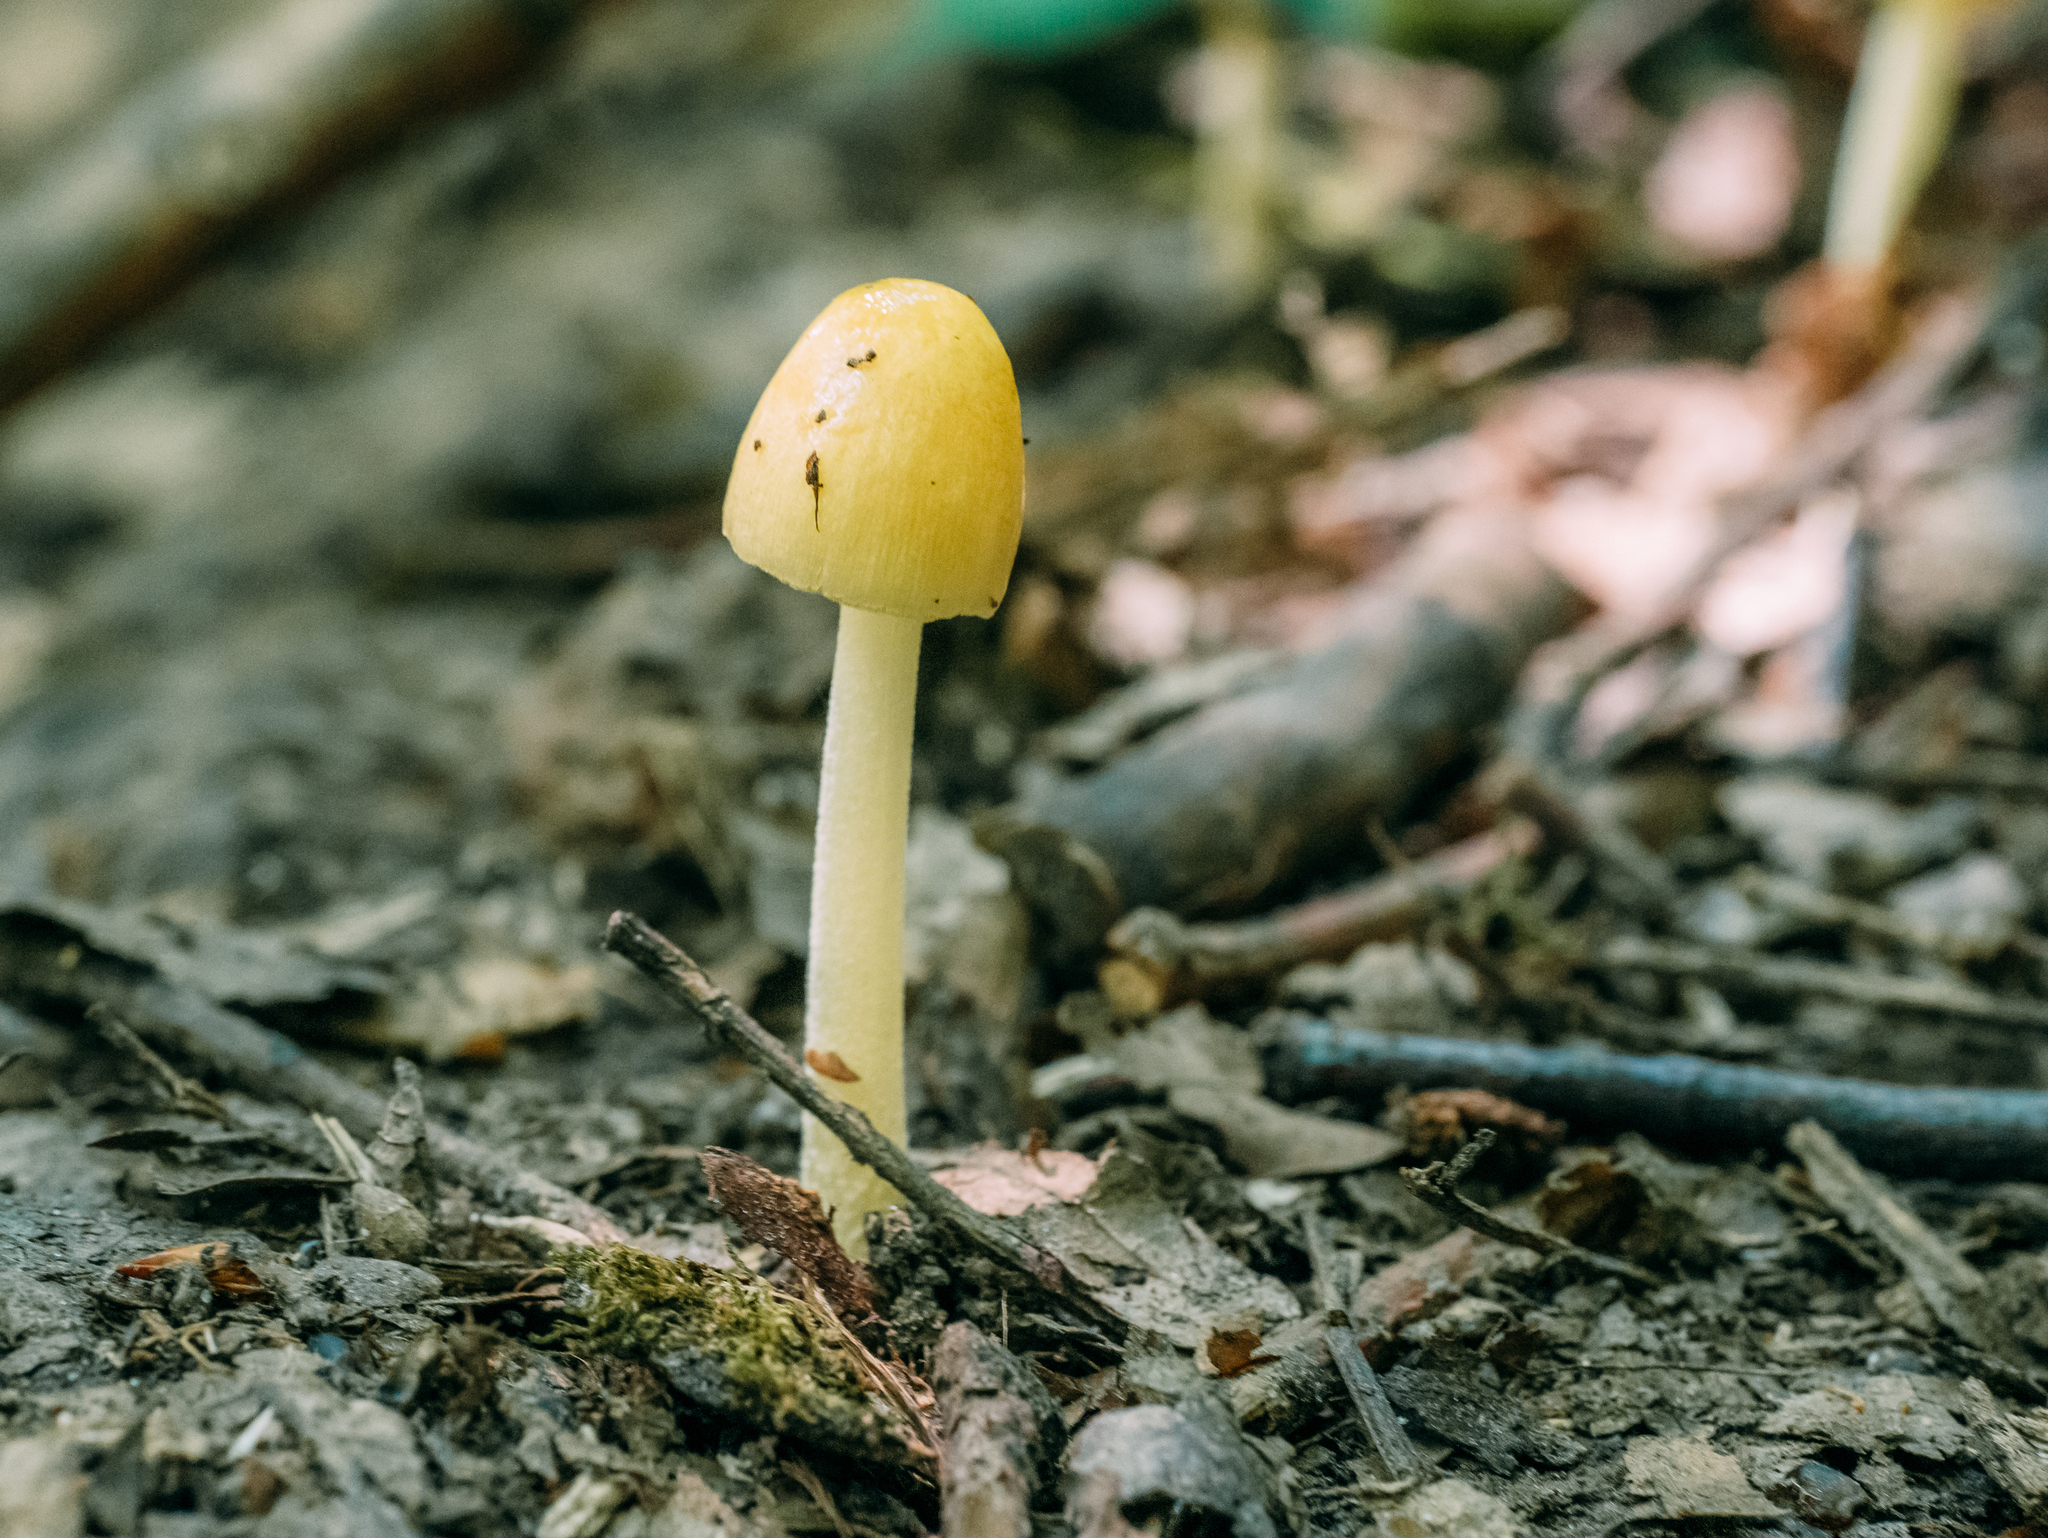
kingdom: Fungi
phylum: Basidiomycota
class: Agaricomycetes
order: Agaricales
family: Bolbitiaceae
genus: Bolbitius
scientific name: Bolbitius titubans
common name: Yellow fieldcap
